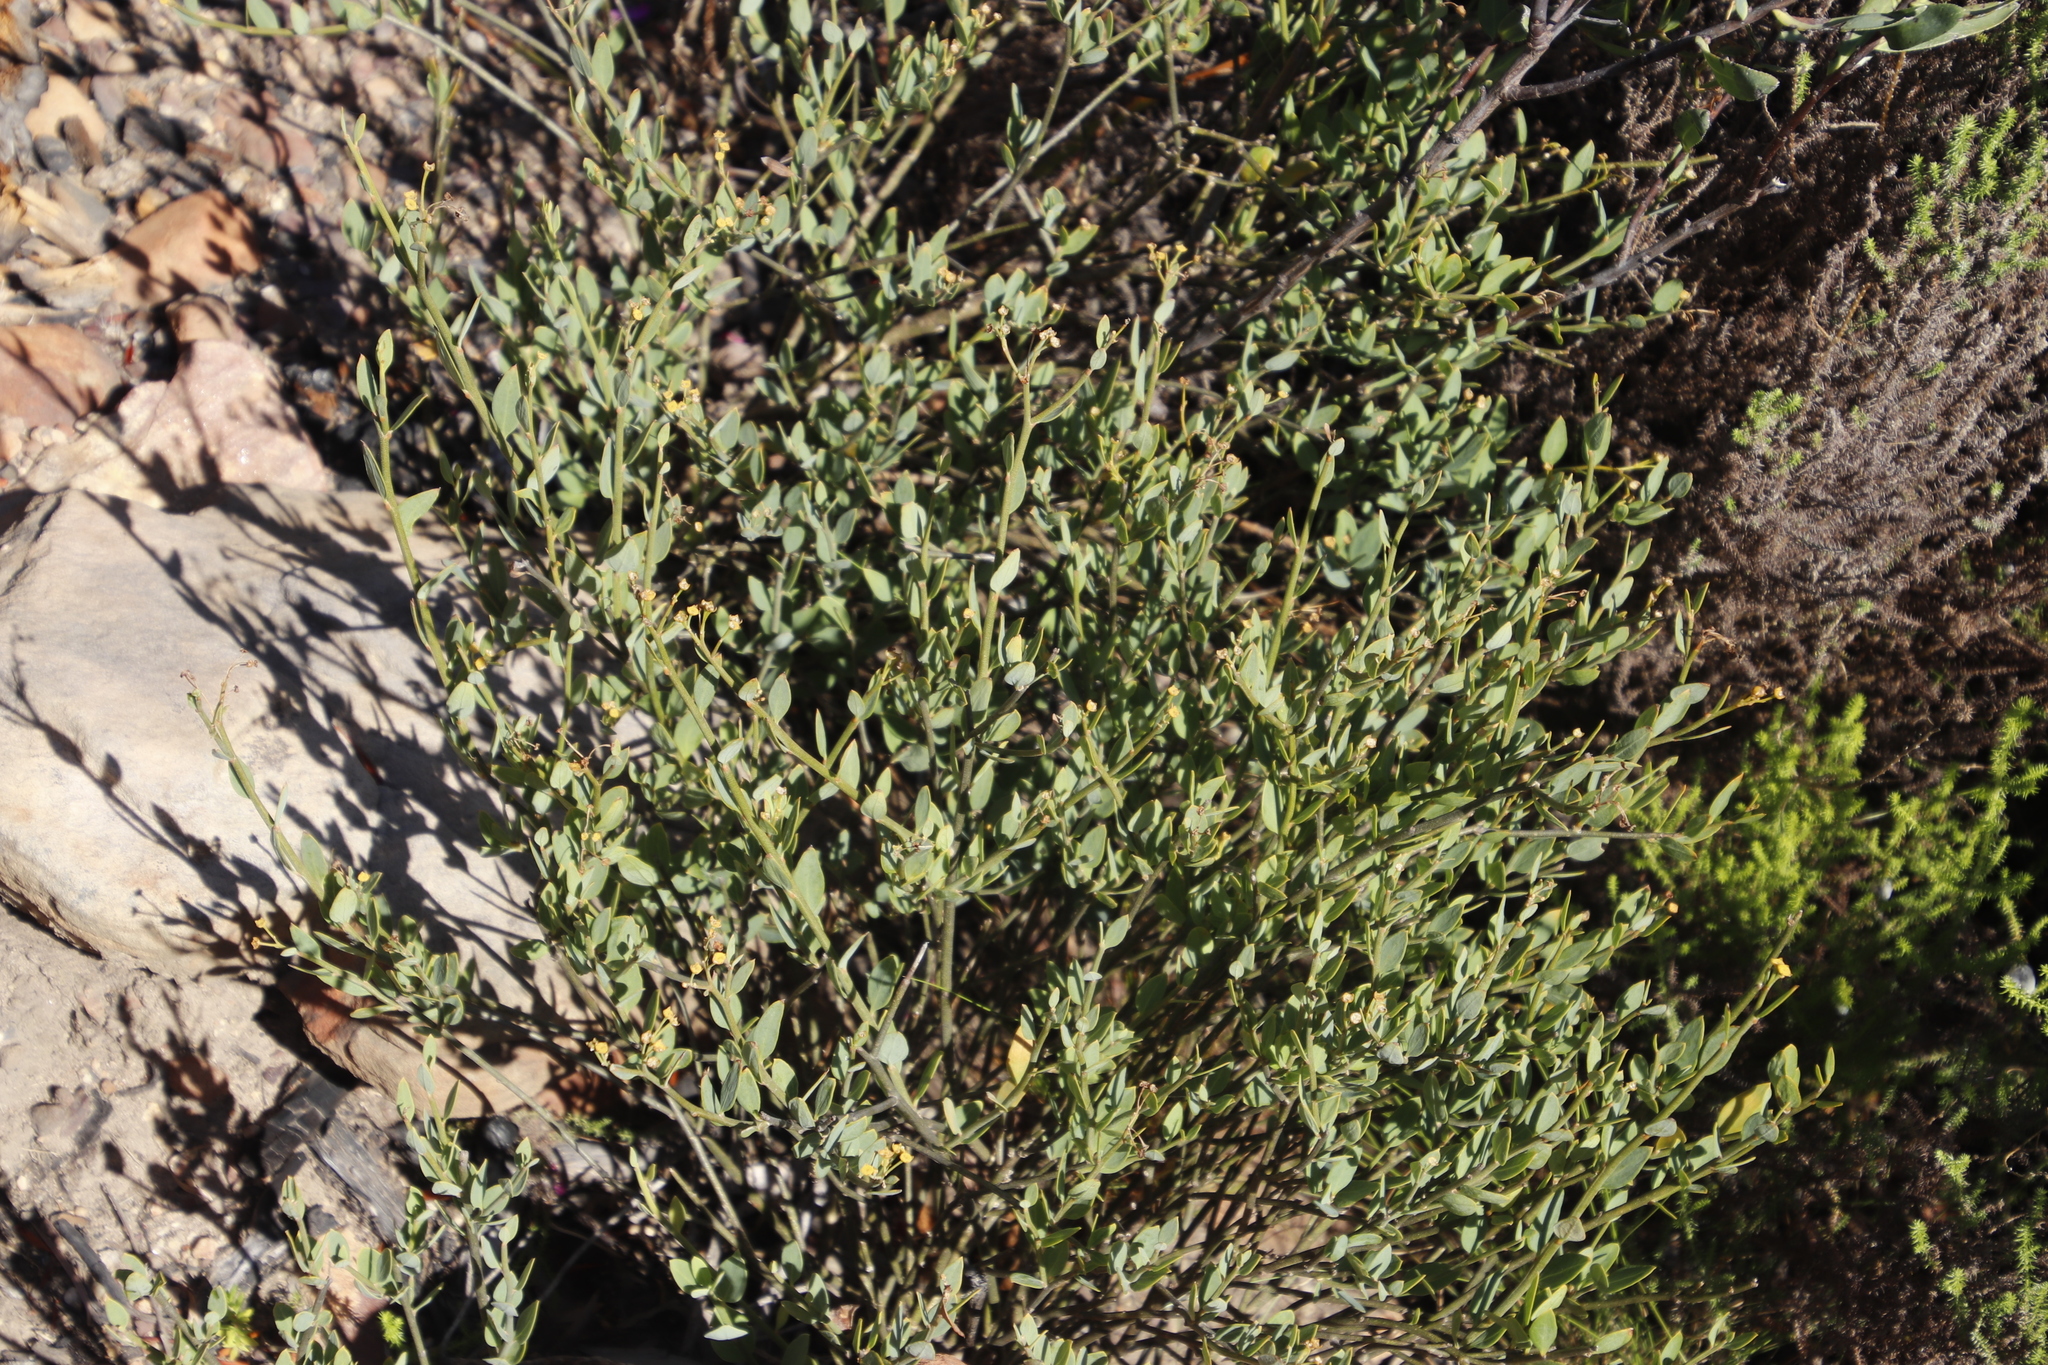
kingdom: Plantae
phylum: Tracheophyta
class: Magnoliopsida
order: Solanales
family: Montiniaceae
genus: Montinia
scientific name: Montinia caryophyllacea
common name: Wild clove-bush
